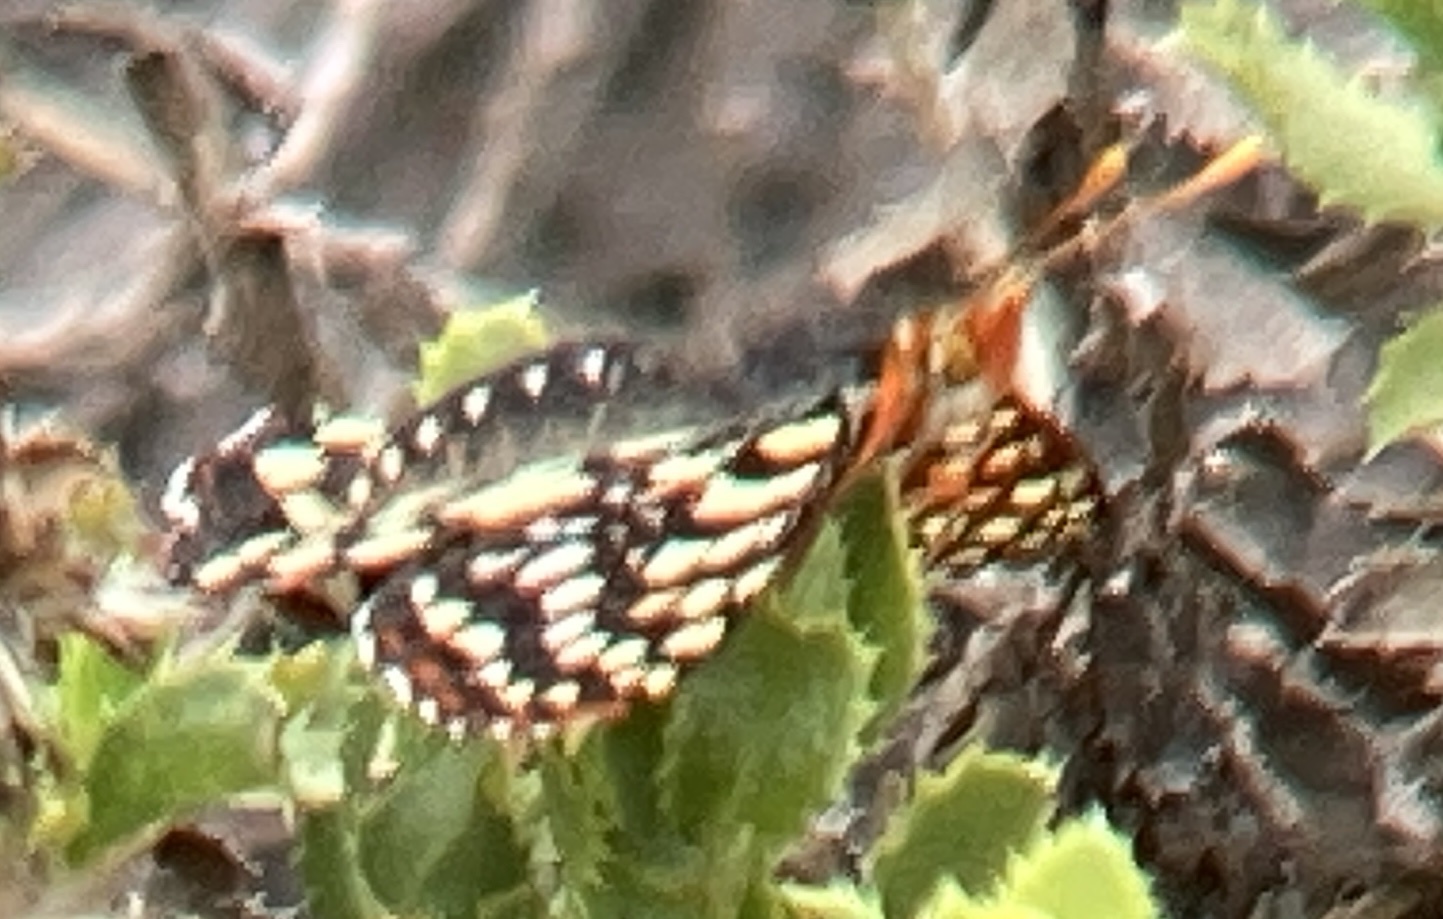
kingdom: Animalia
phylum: Arthropoda
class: Insecta
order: Lepidoptera
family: Nymphalidae
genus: Occidryas
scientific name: Occidryas chalcedona
